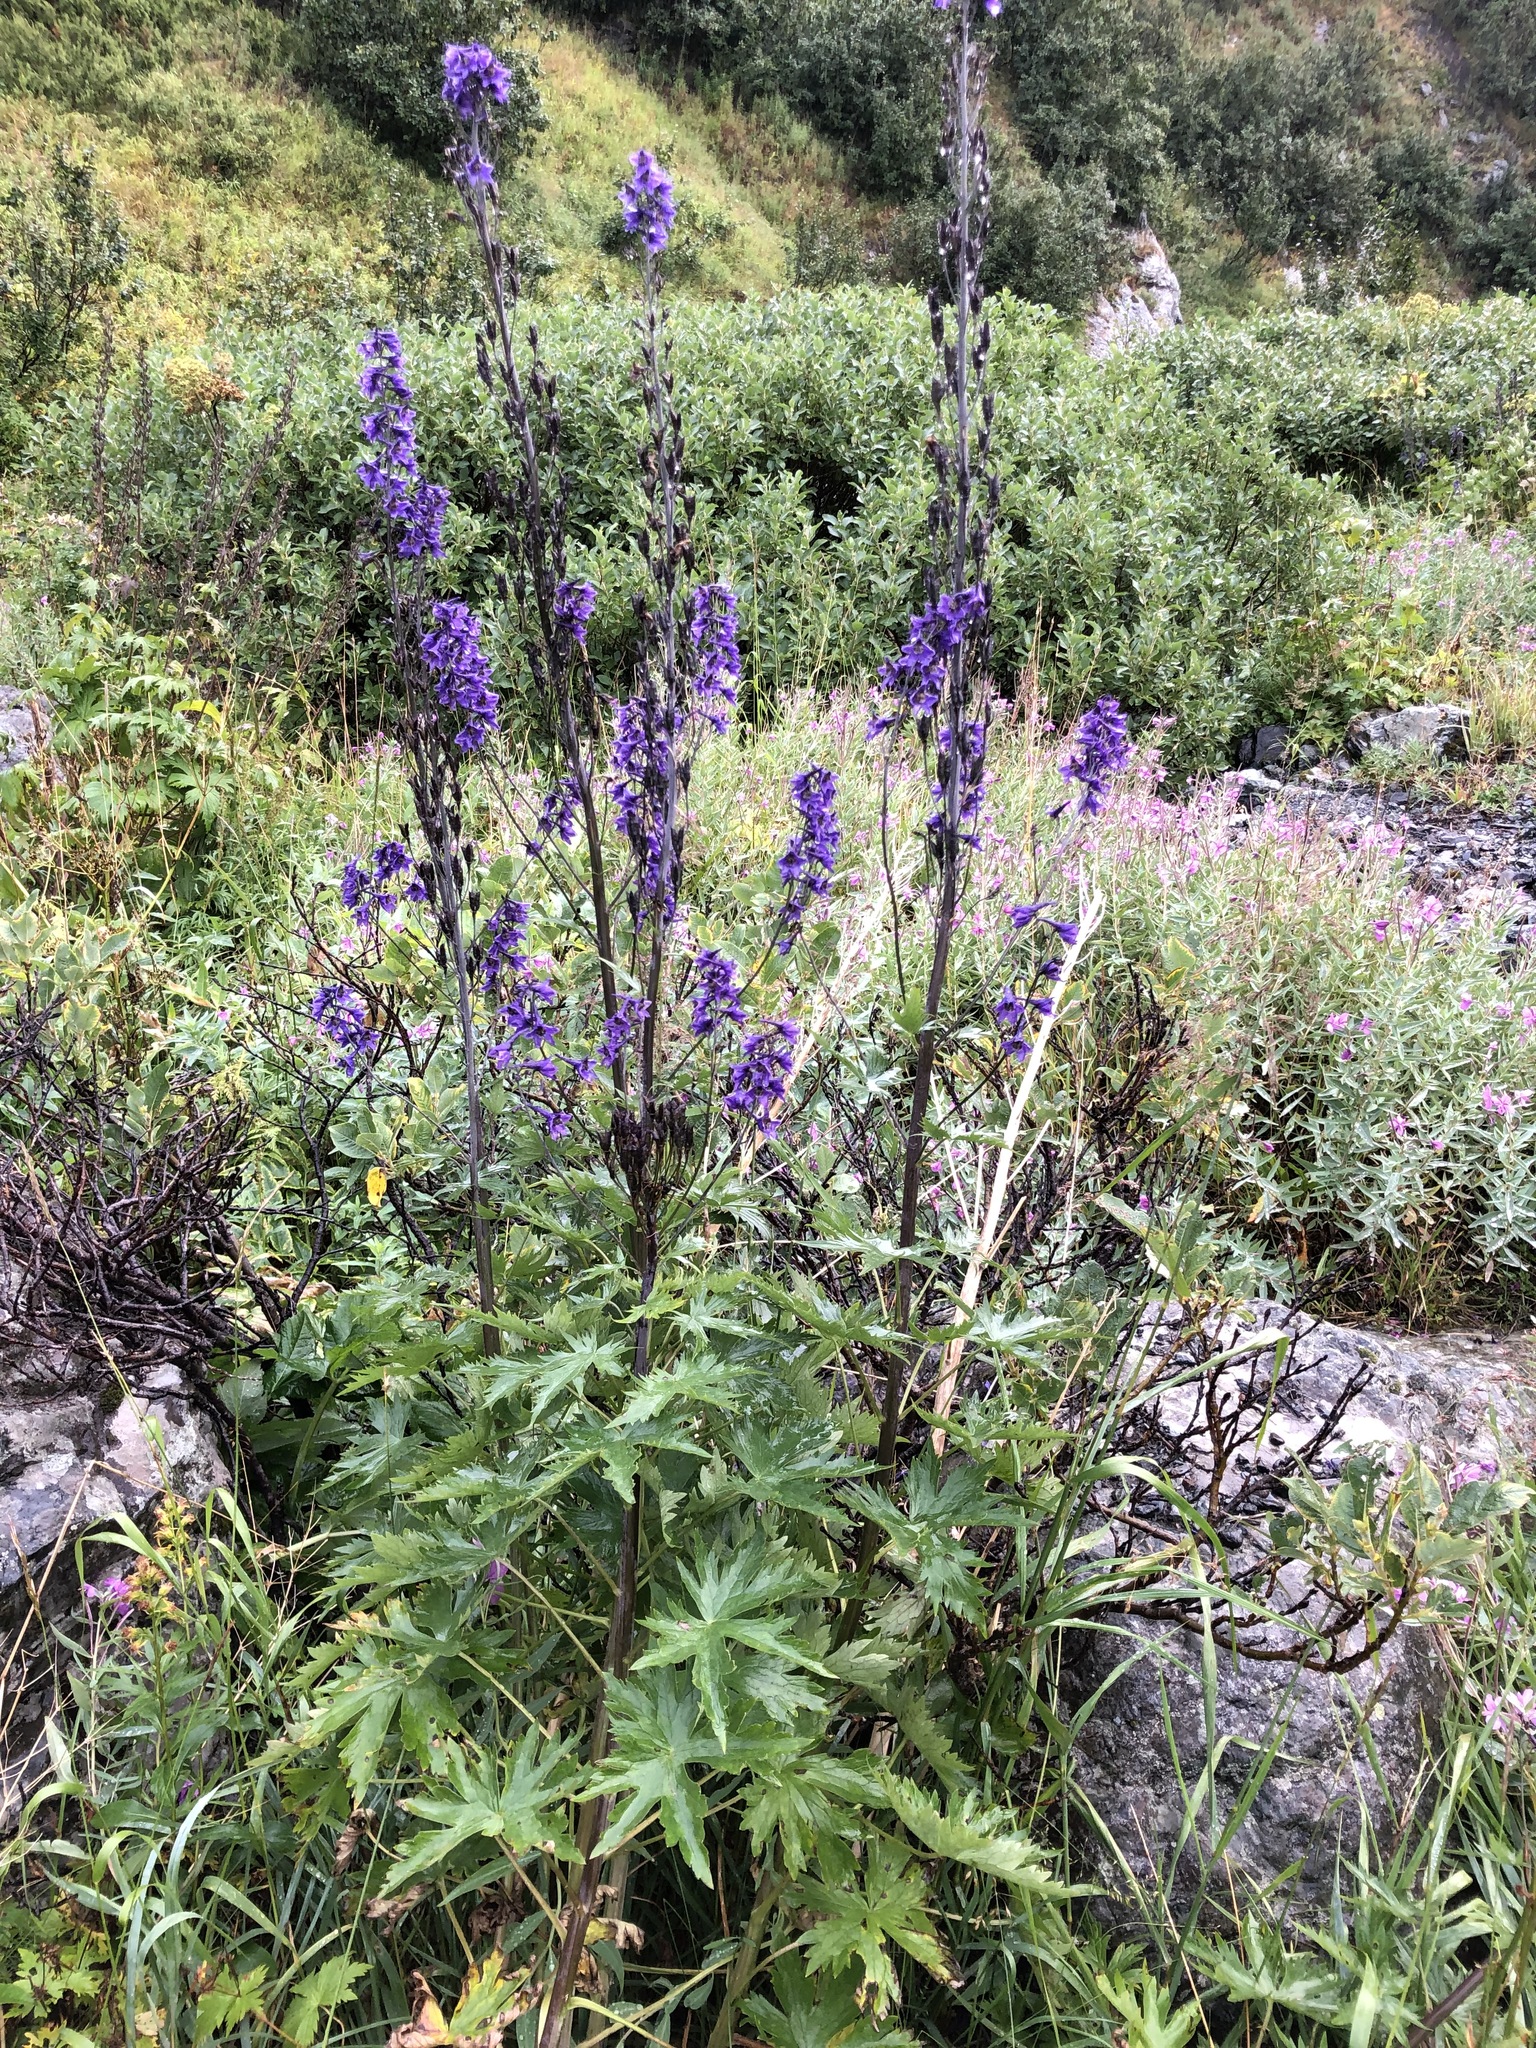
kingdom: Plantae
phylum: Tracheophyta
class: Magnoliopsida
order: Ranunculales
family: Ranunculaceae
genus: Delphinium
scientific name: Delphinium elatum
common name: Candle larkspur
